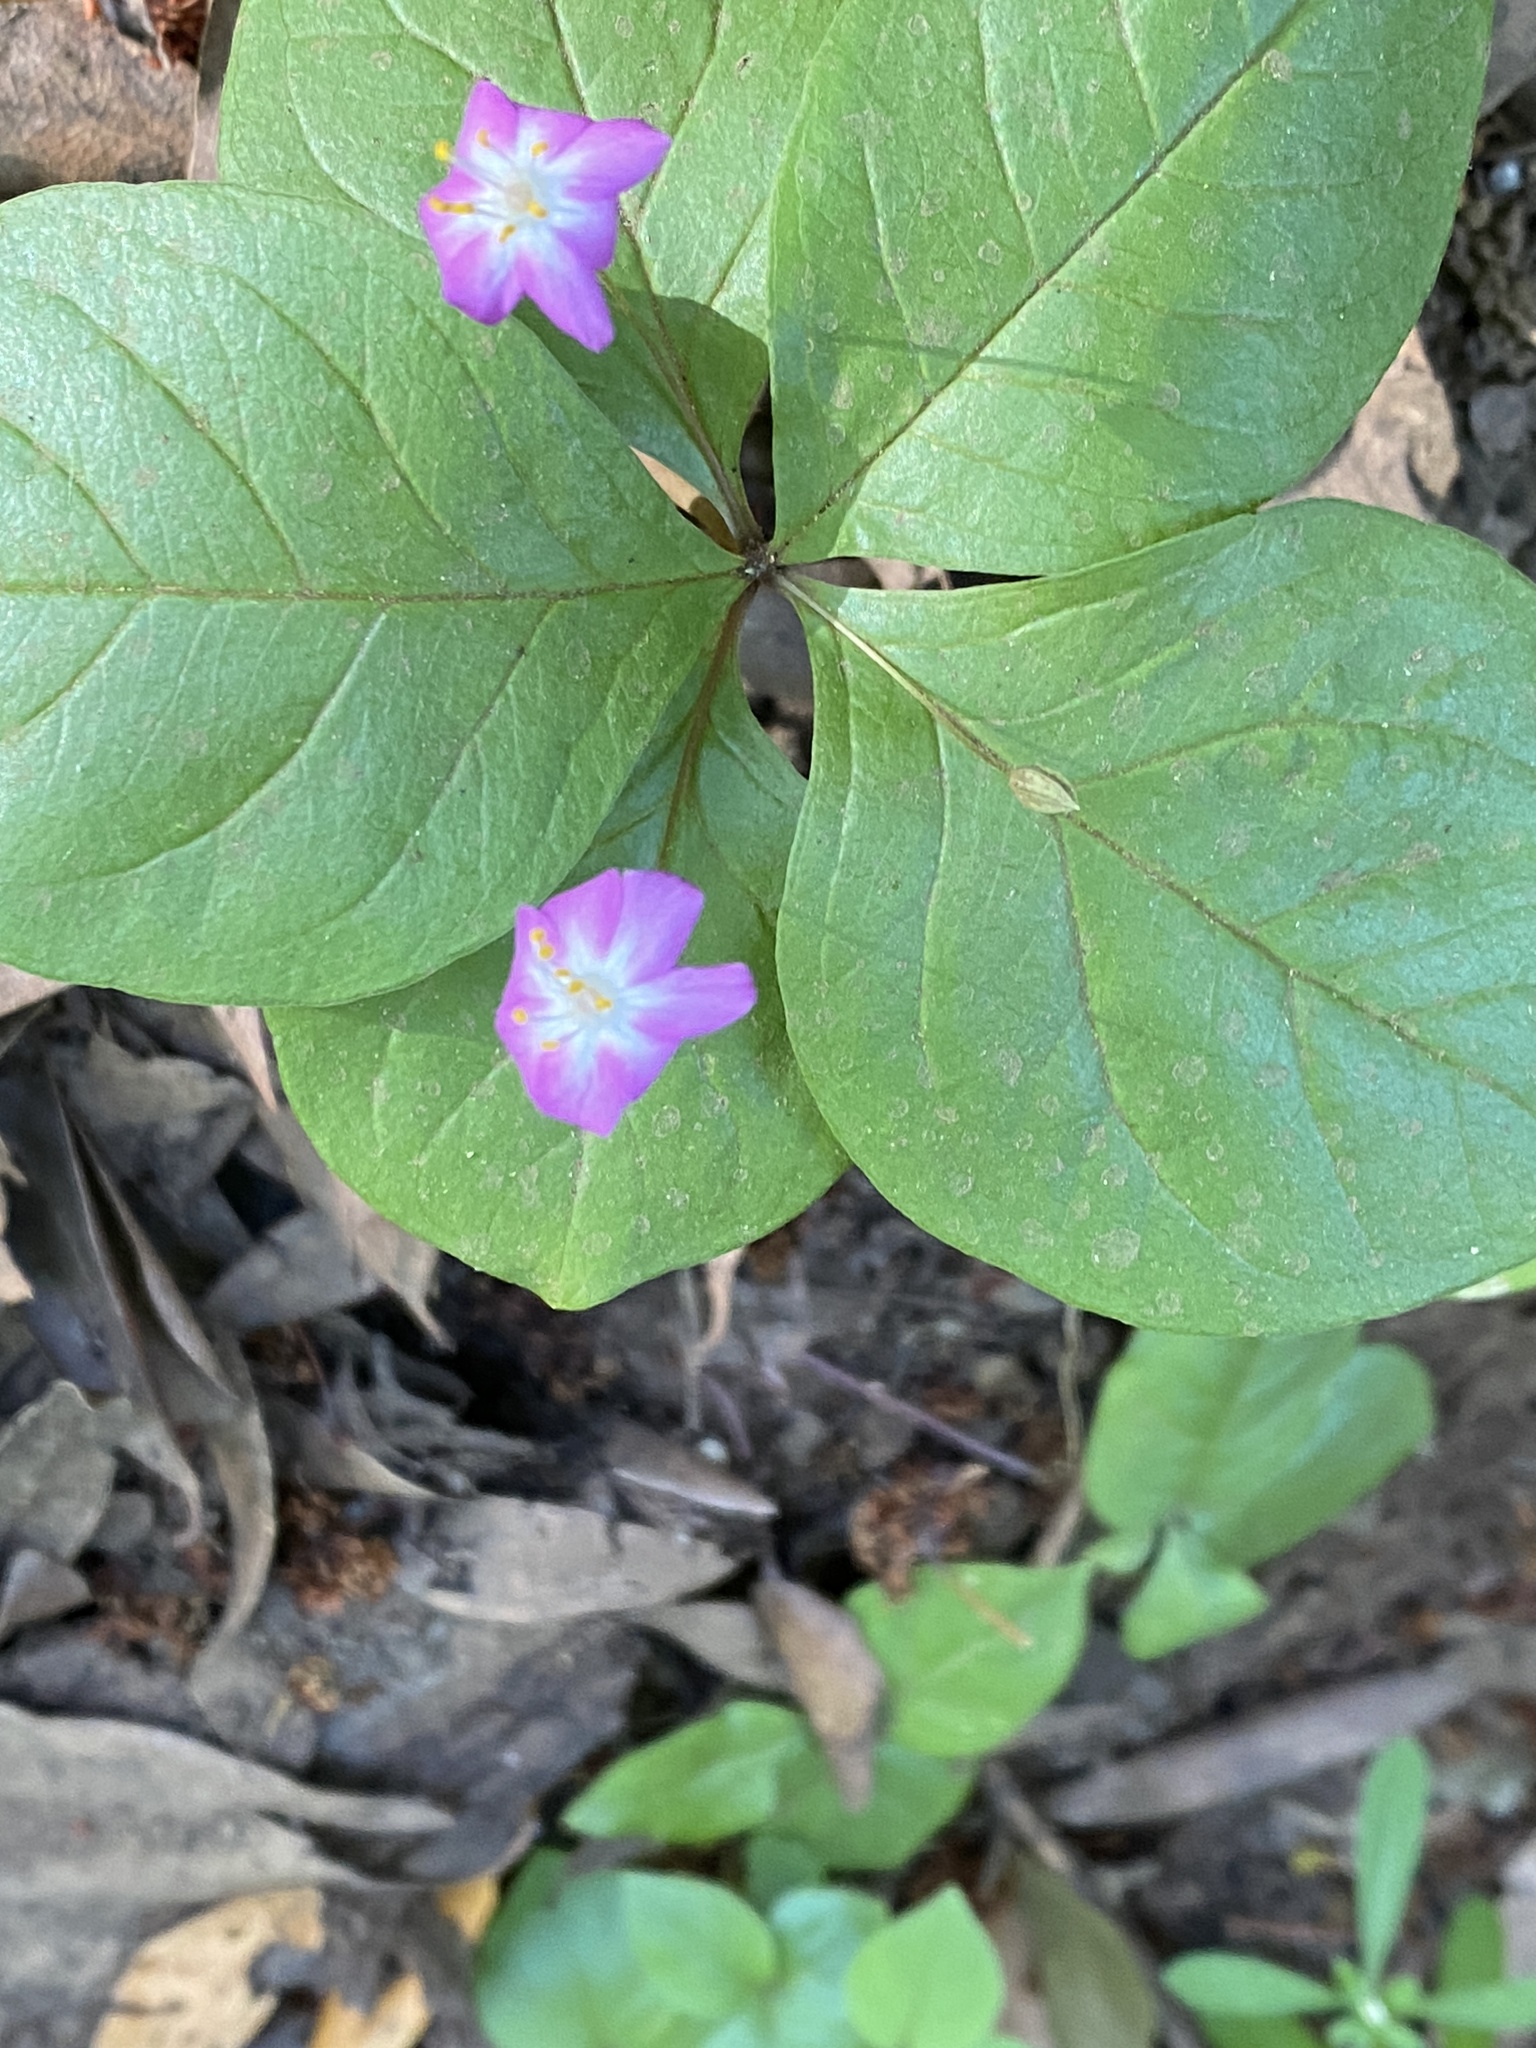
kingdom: Plantae
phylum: Tracheophyta
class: Magnoliopsida
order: Ericales
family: Primulaceae
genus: Lysimachia
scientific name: Lysimachia latifolia
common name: Pacific starflower
